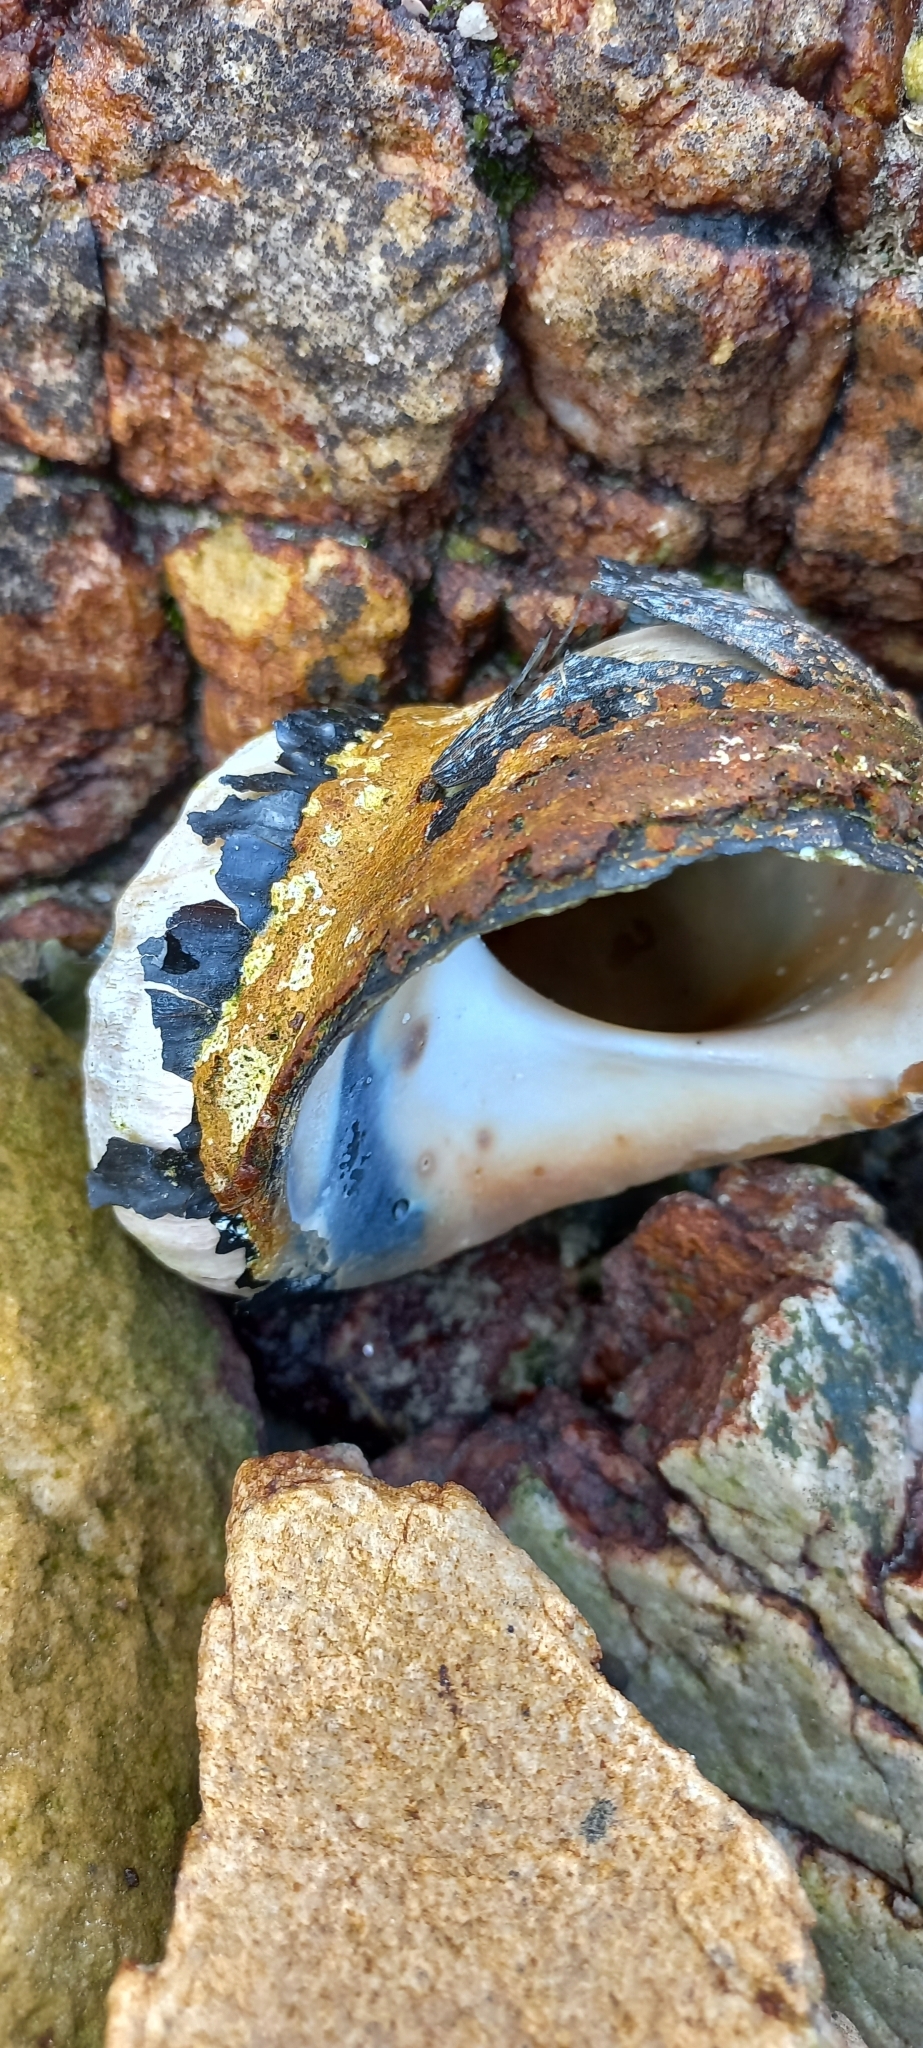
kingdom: Animalia
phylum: Mollusca
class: Gastropoda
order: Trochida
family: Turbinidae
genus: Turbo
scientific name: Turbo sarmaticus
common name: South african turban
